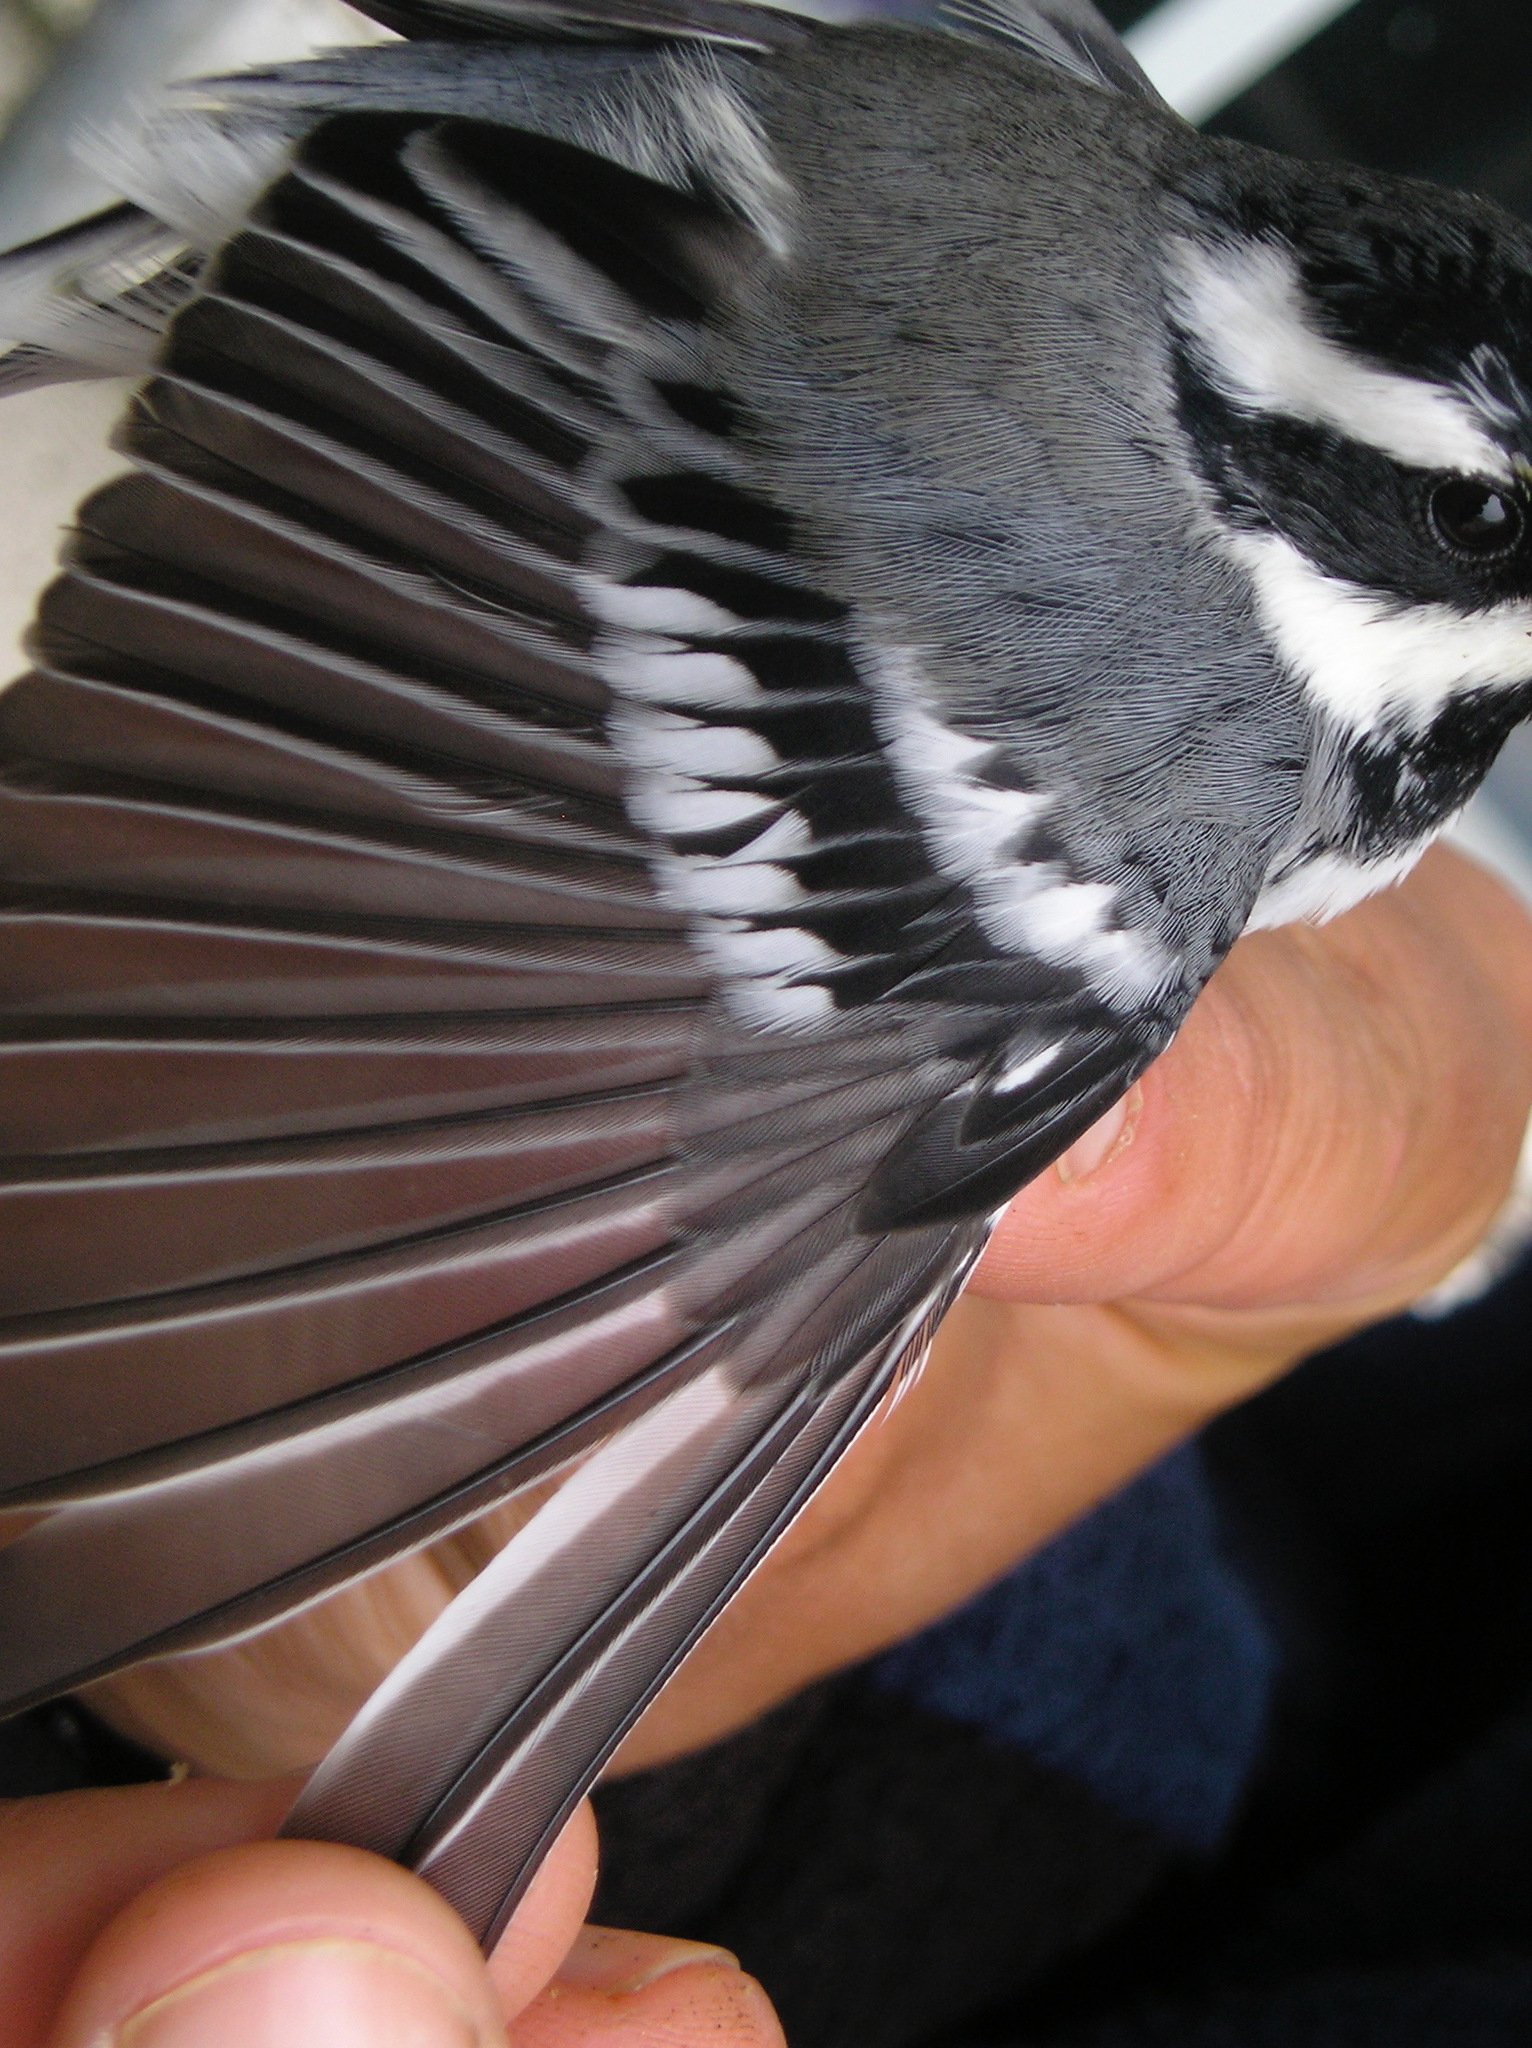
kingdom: Animalia
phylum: Chordata
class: Aves
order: Passeriformes
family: Parulidae
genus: Setophaga
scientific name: Setophaga nigrescens
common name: Black-throated gray warbler
